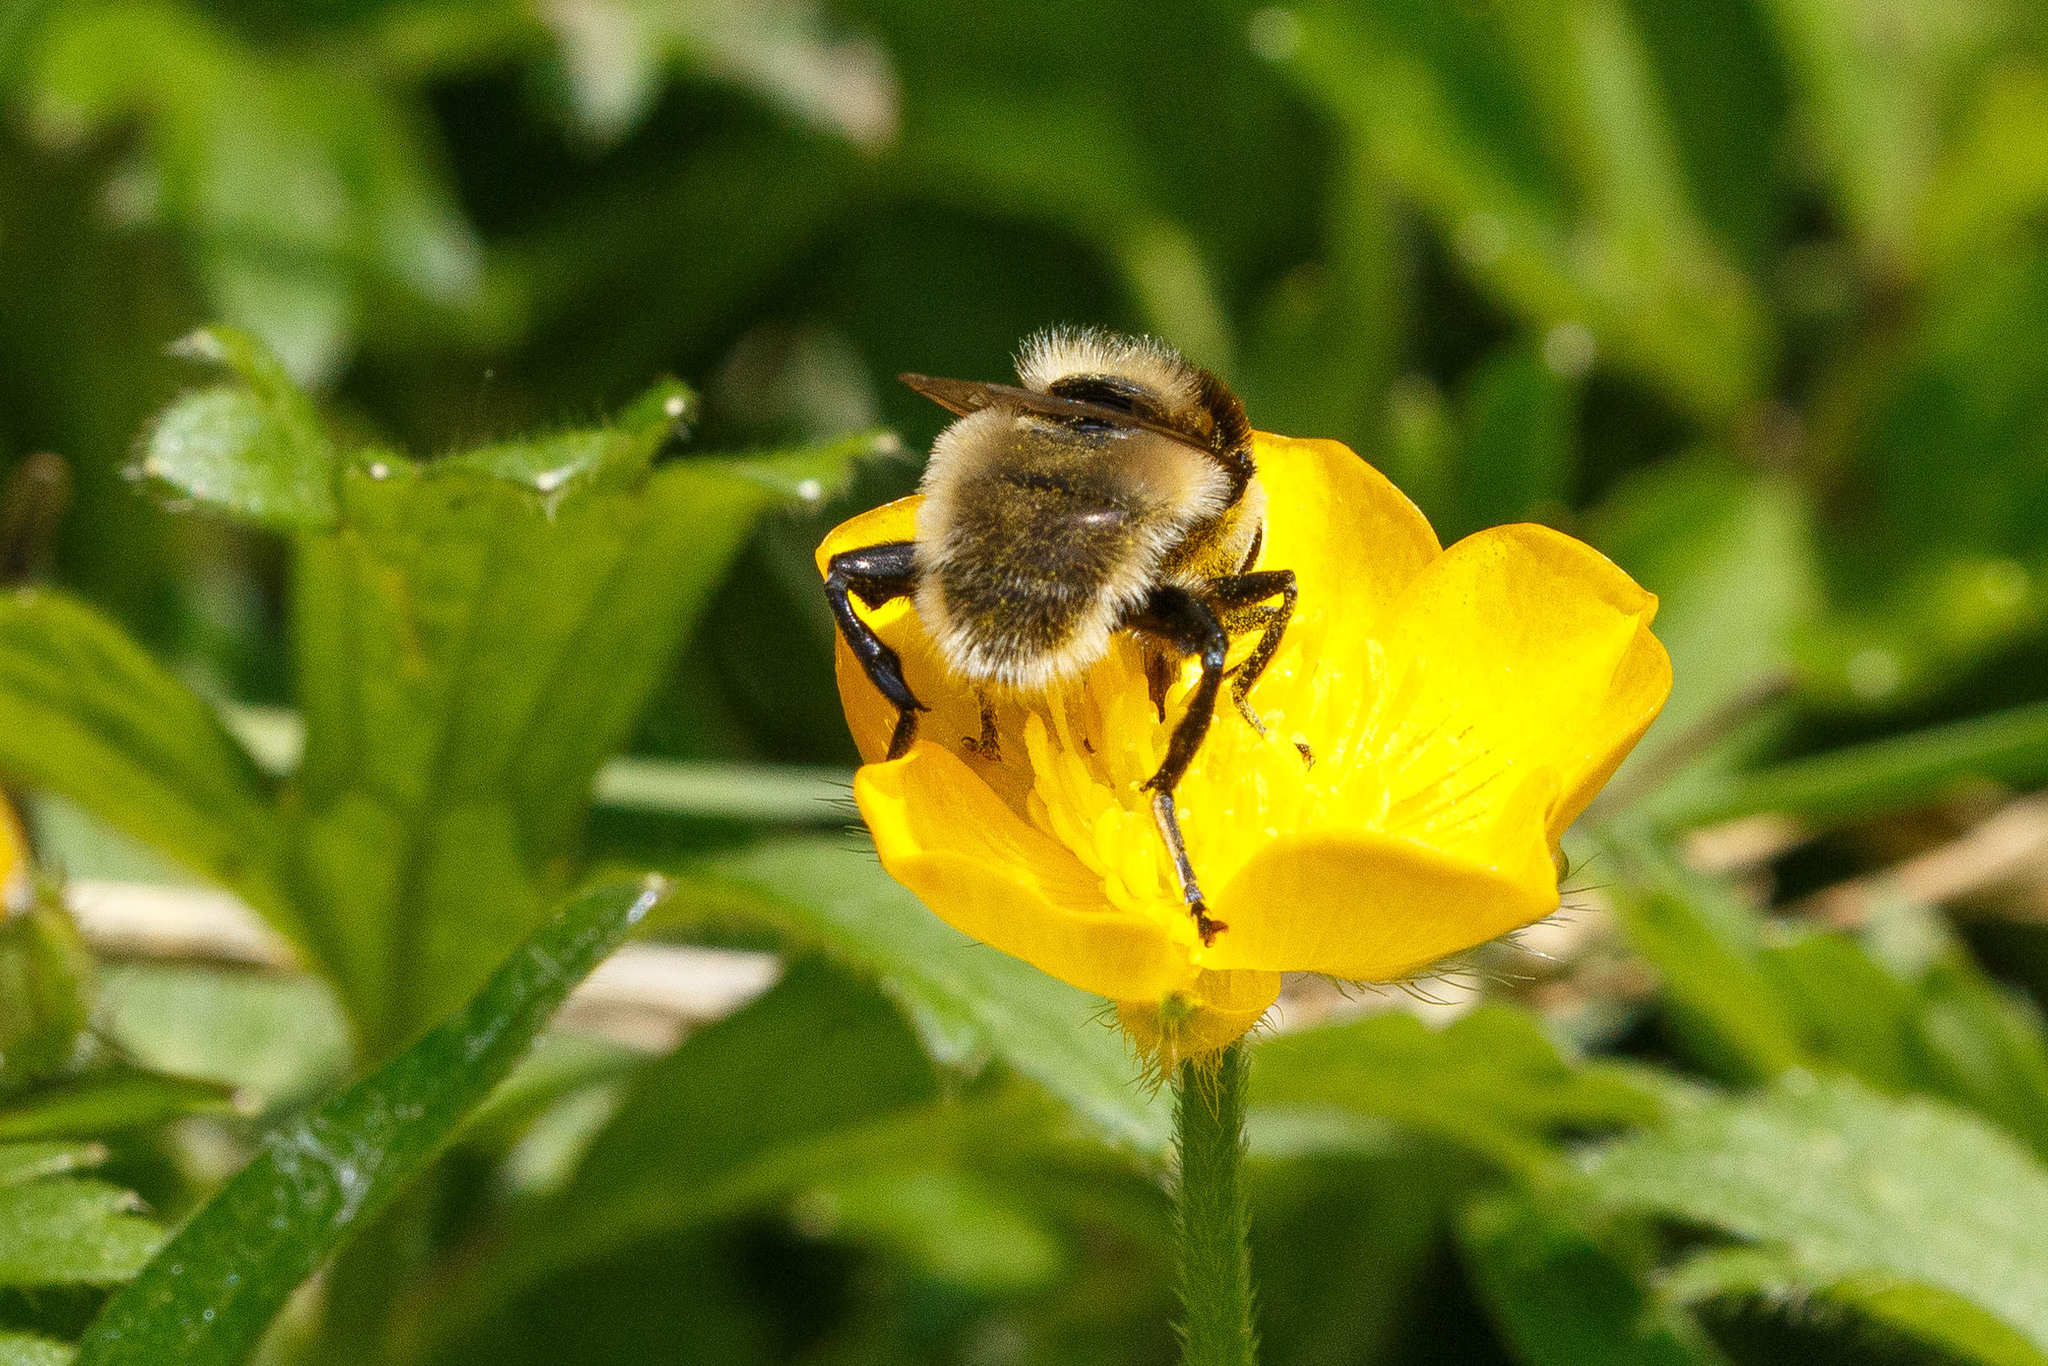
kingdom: Animalia
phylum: Arthropoda
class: Insecta
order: Diptera
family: Syrphidae
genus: Merodon
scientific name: Merodon equestris
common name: Greater bulb-fly
